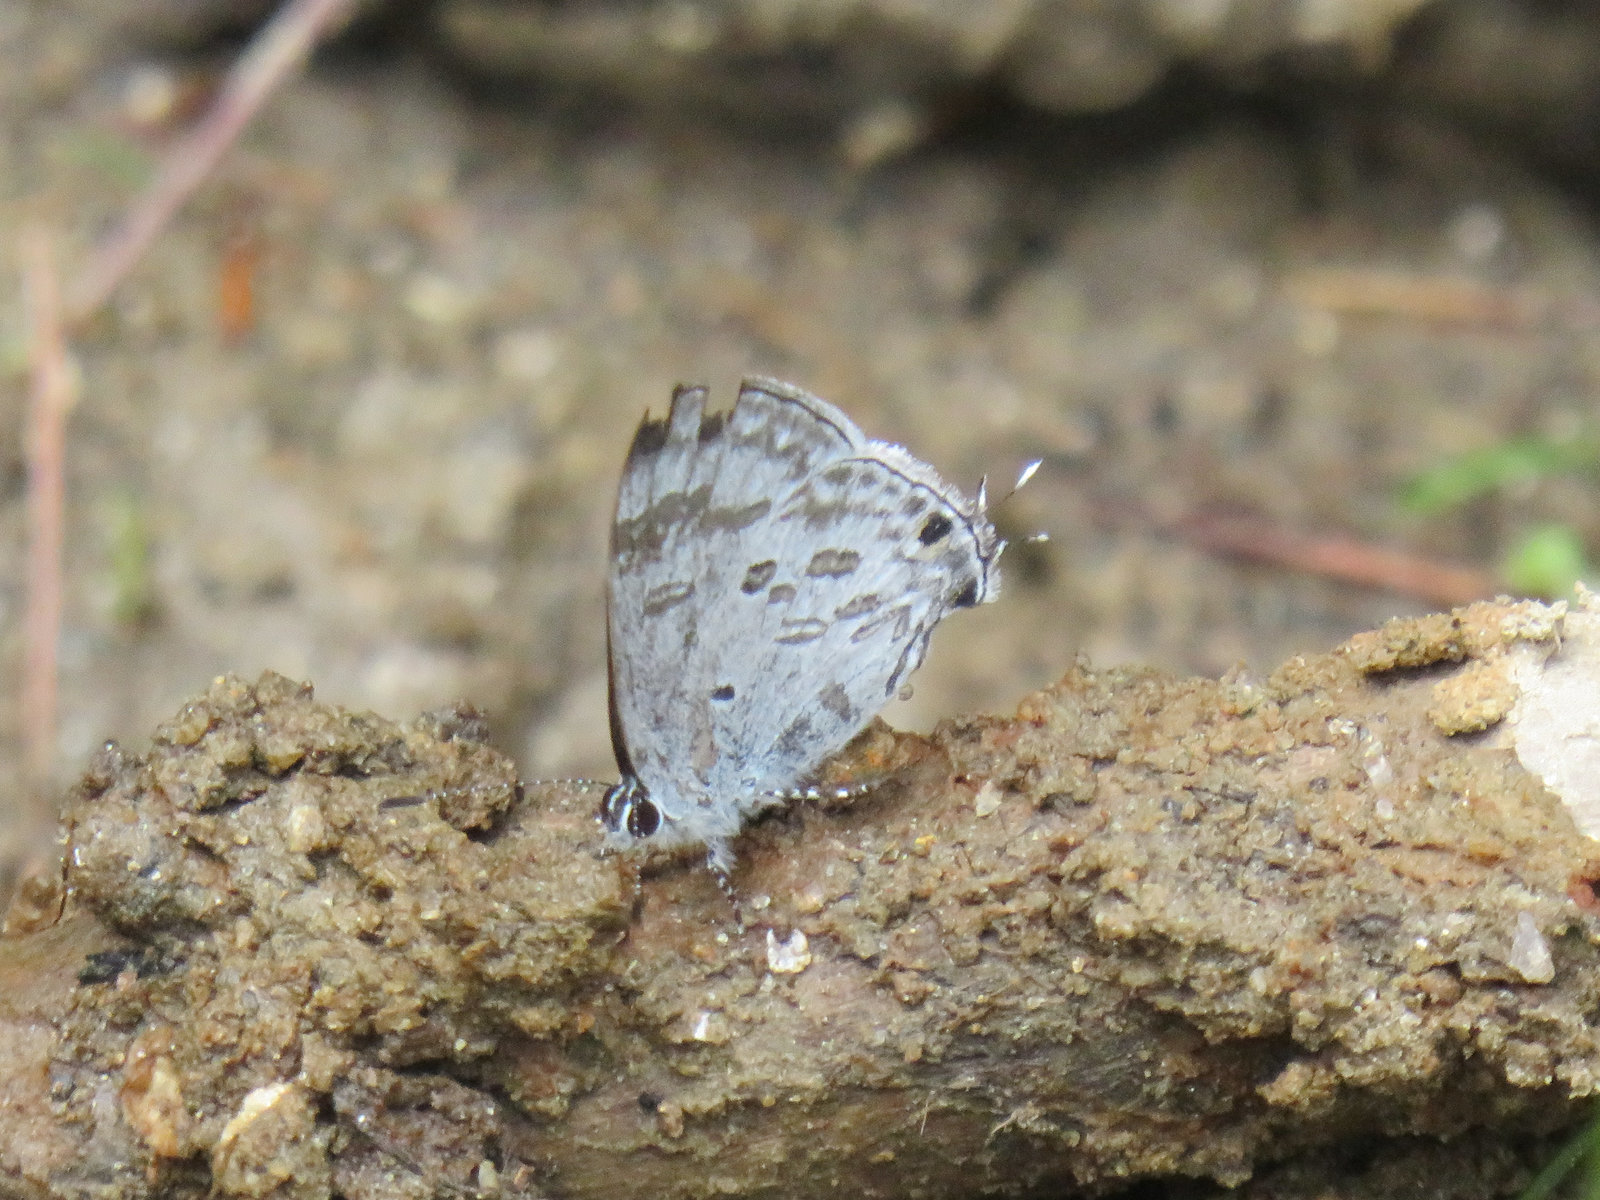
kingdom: Animalia
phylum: Arthropoda
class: Insecta
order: Lepidoptera
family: Lycaenidae
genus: Chliaria
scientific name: Chliaria kina
